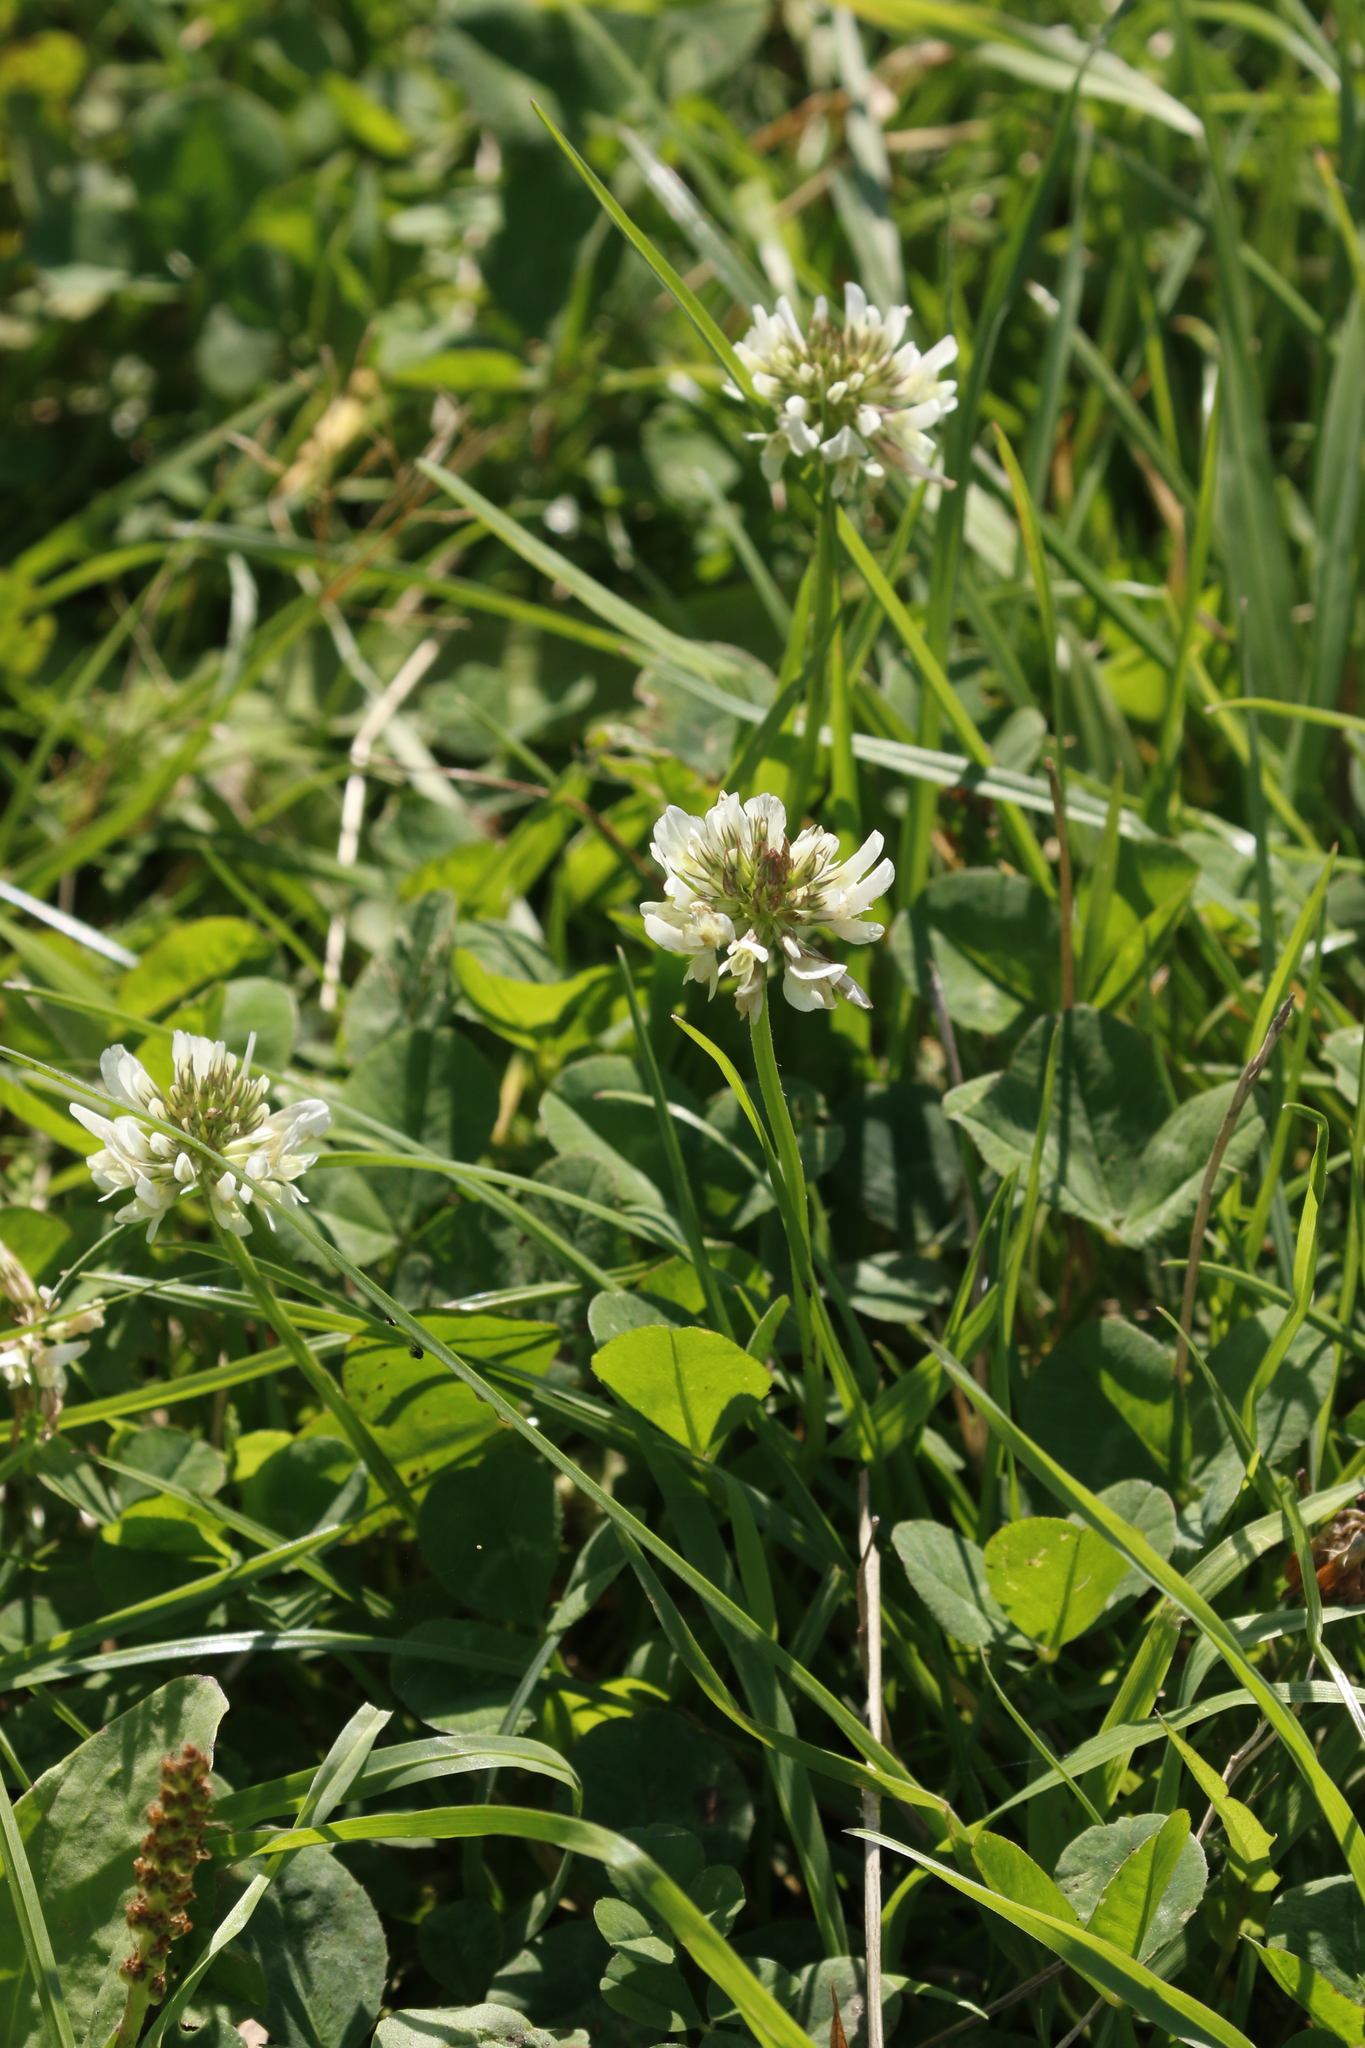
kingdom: Plantae
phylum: Tracheophyta
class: Magnoliopsida
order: Fabales
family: Fabaceae
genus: Trifolium
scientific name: Trifolium repens
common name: White clover
